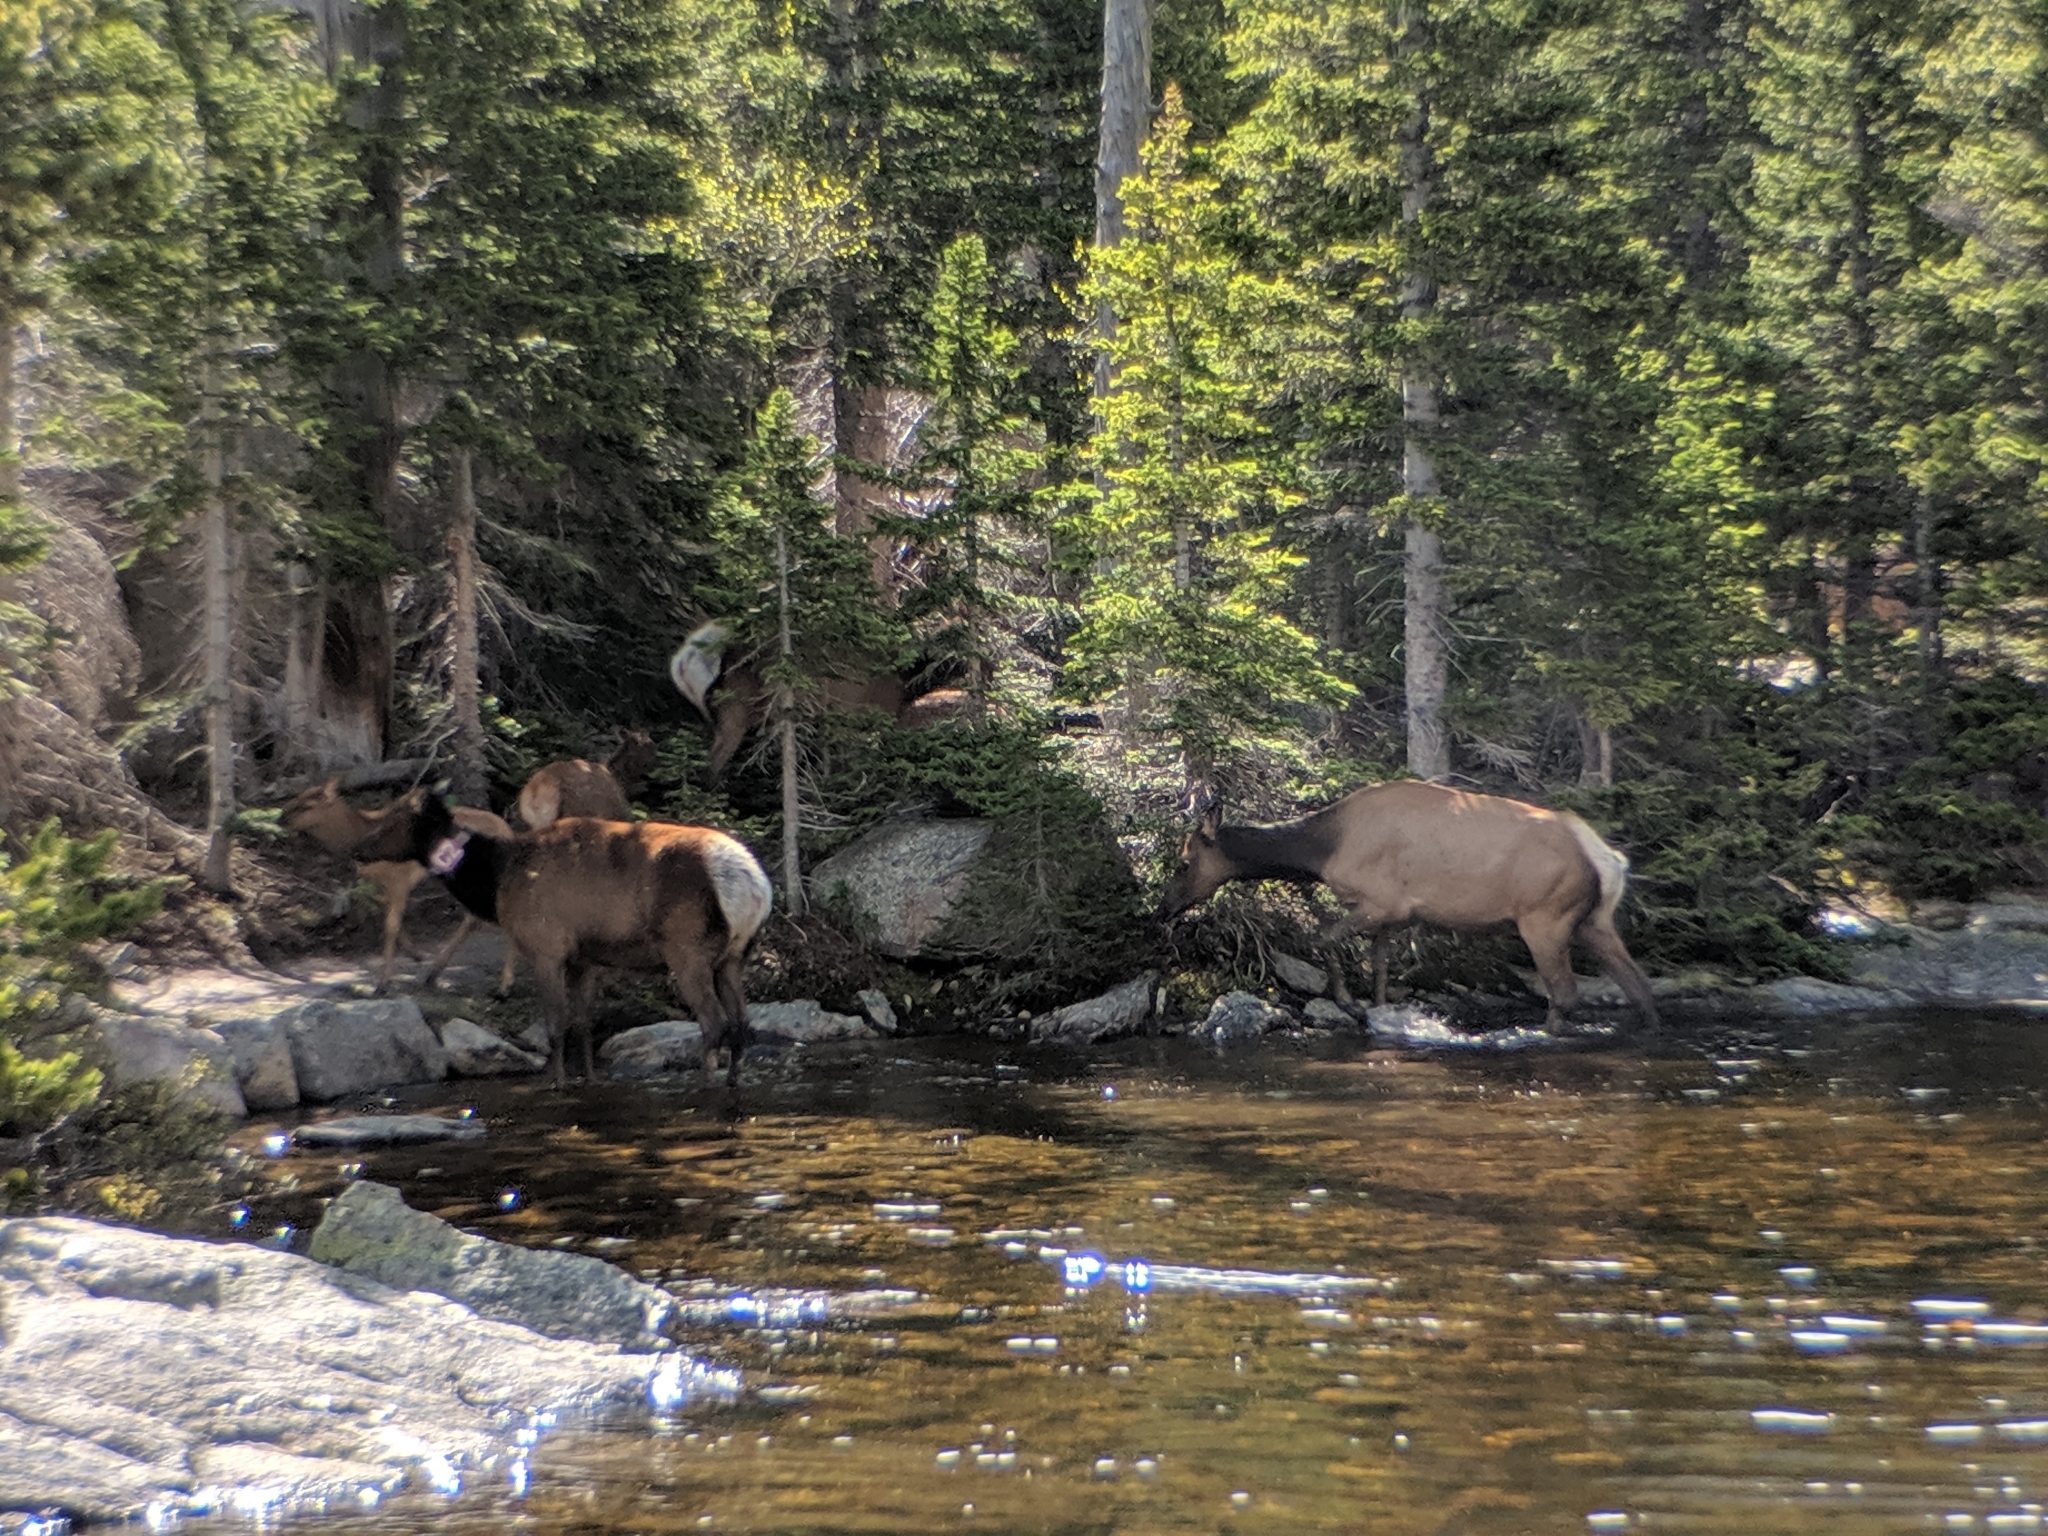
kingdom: Animalia
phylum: Chordata
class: Mammalia
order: Artiodactyla
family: Cervidae
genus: Cervus
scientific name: Cervus elaphus
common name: Red deer
